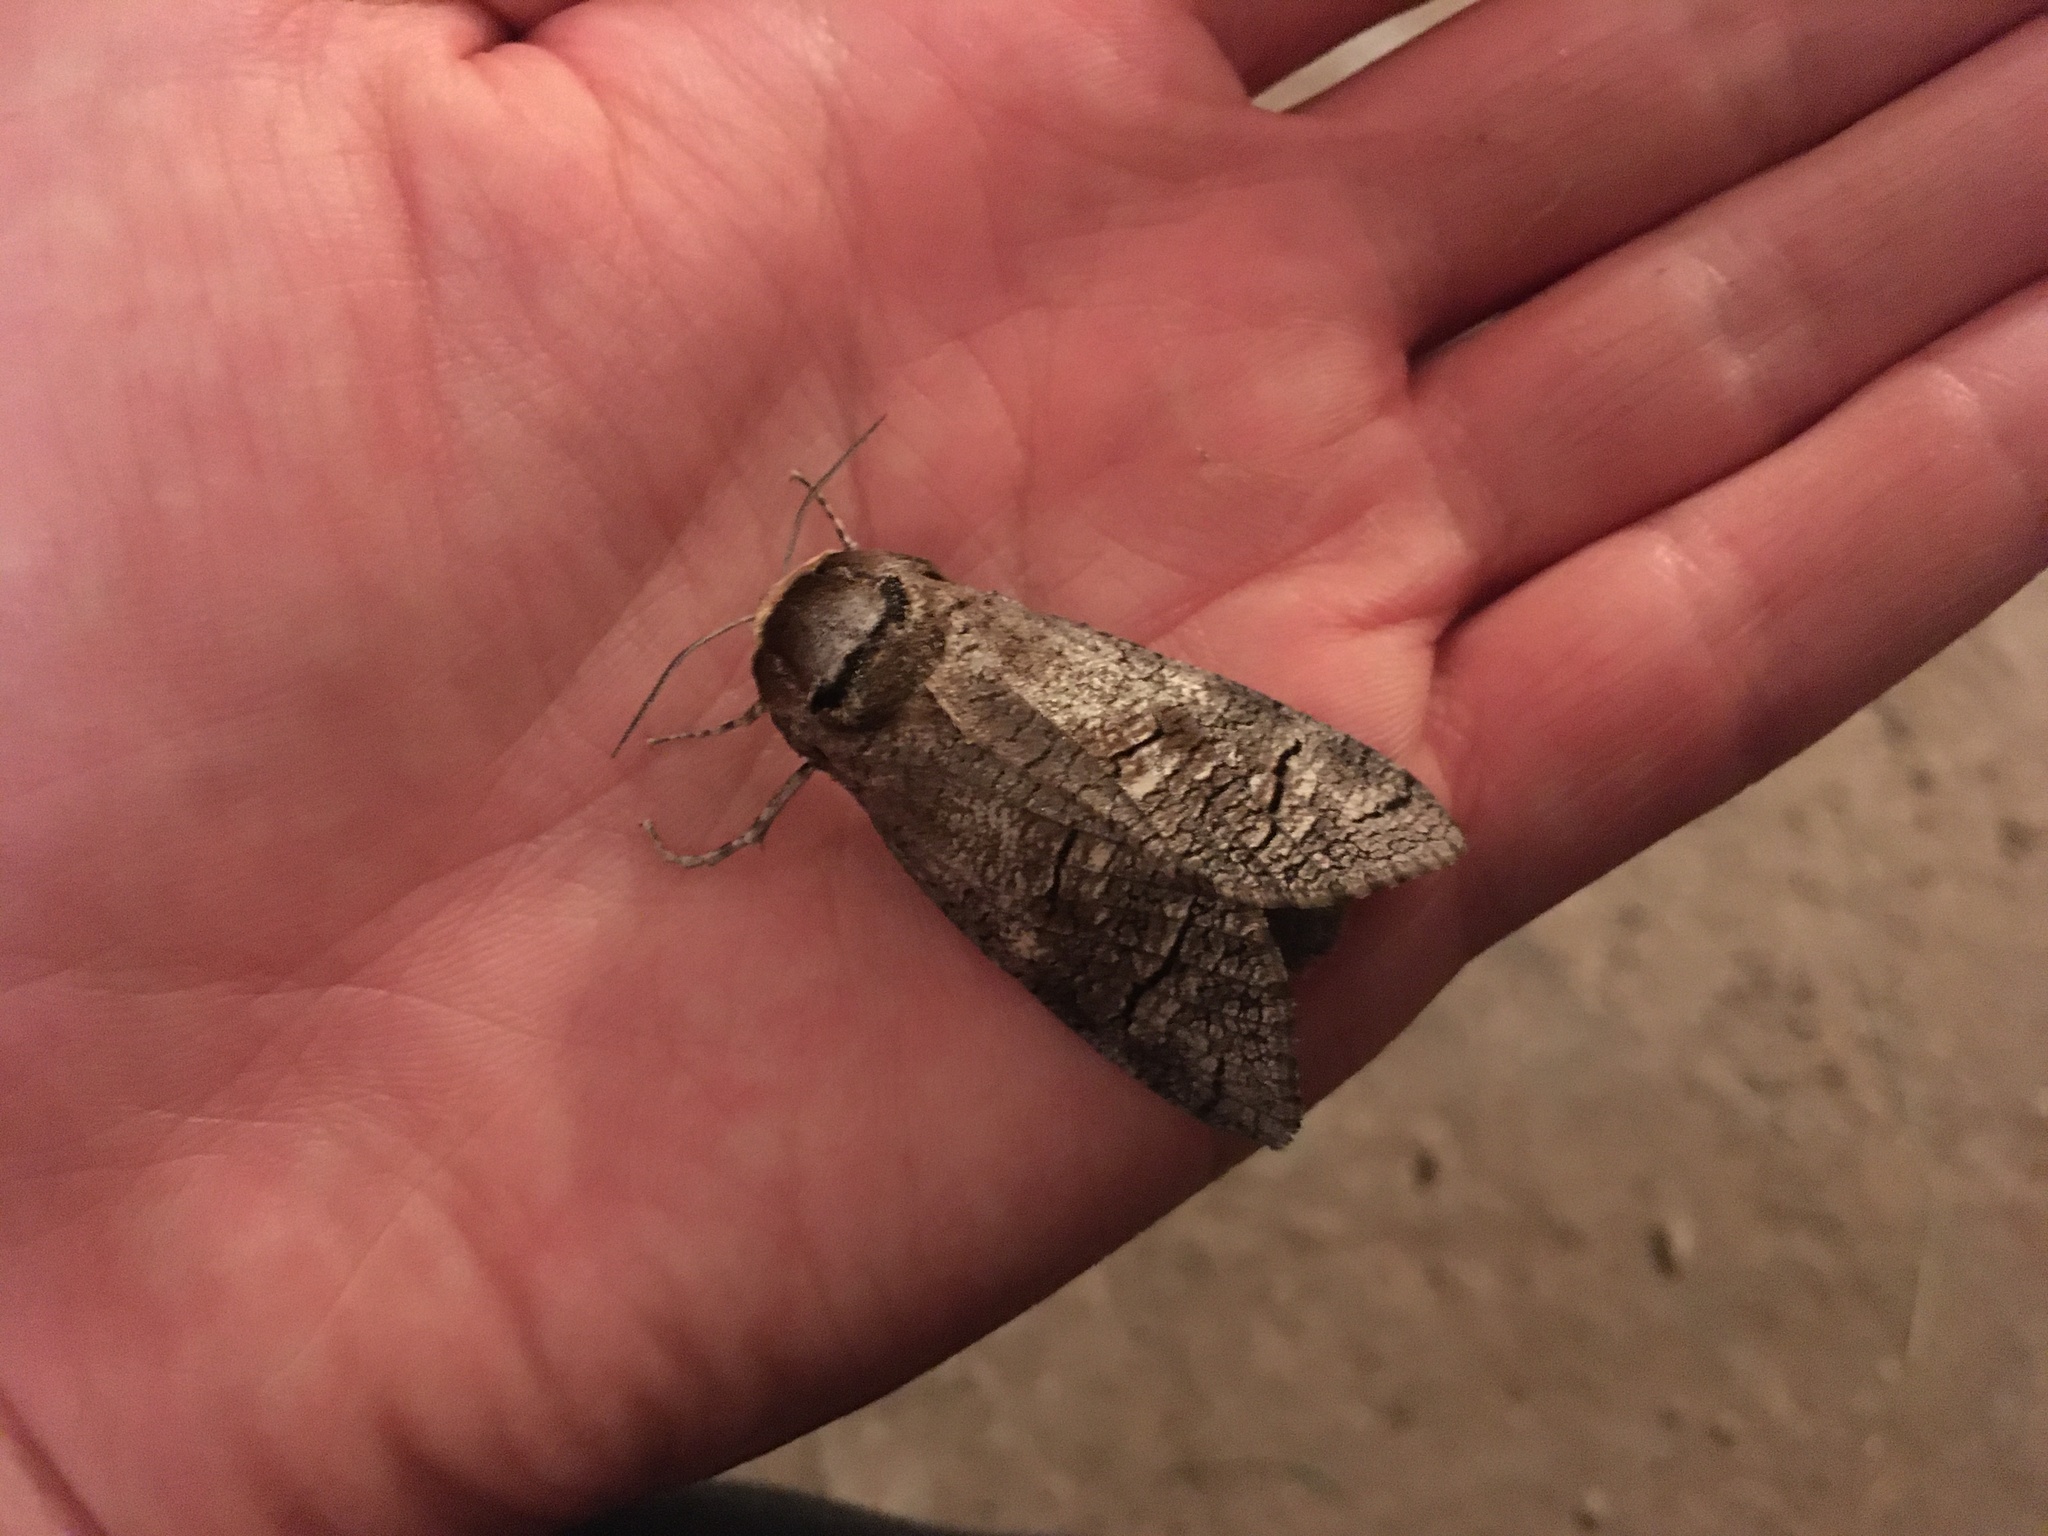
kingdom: Animalia
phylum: Arthropoda
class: Insecta
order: Lepidoptera
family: Cossidae
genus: Cossus
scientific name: Cossus cossus
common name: Goat moth
